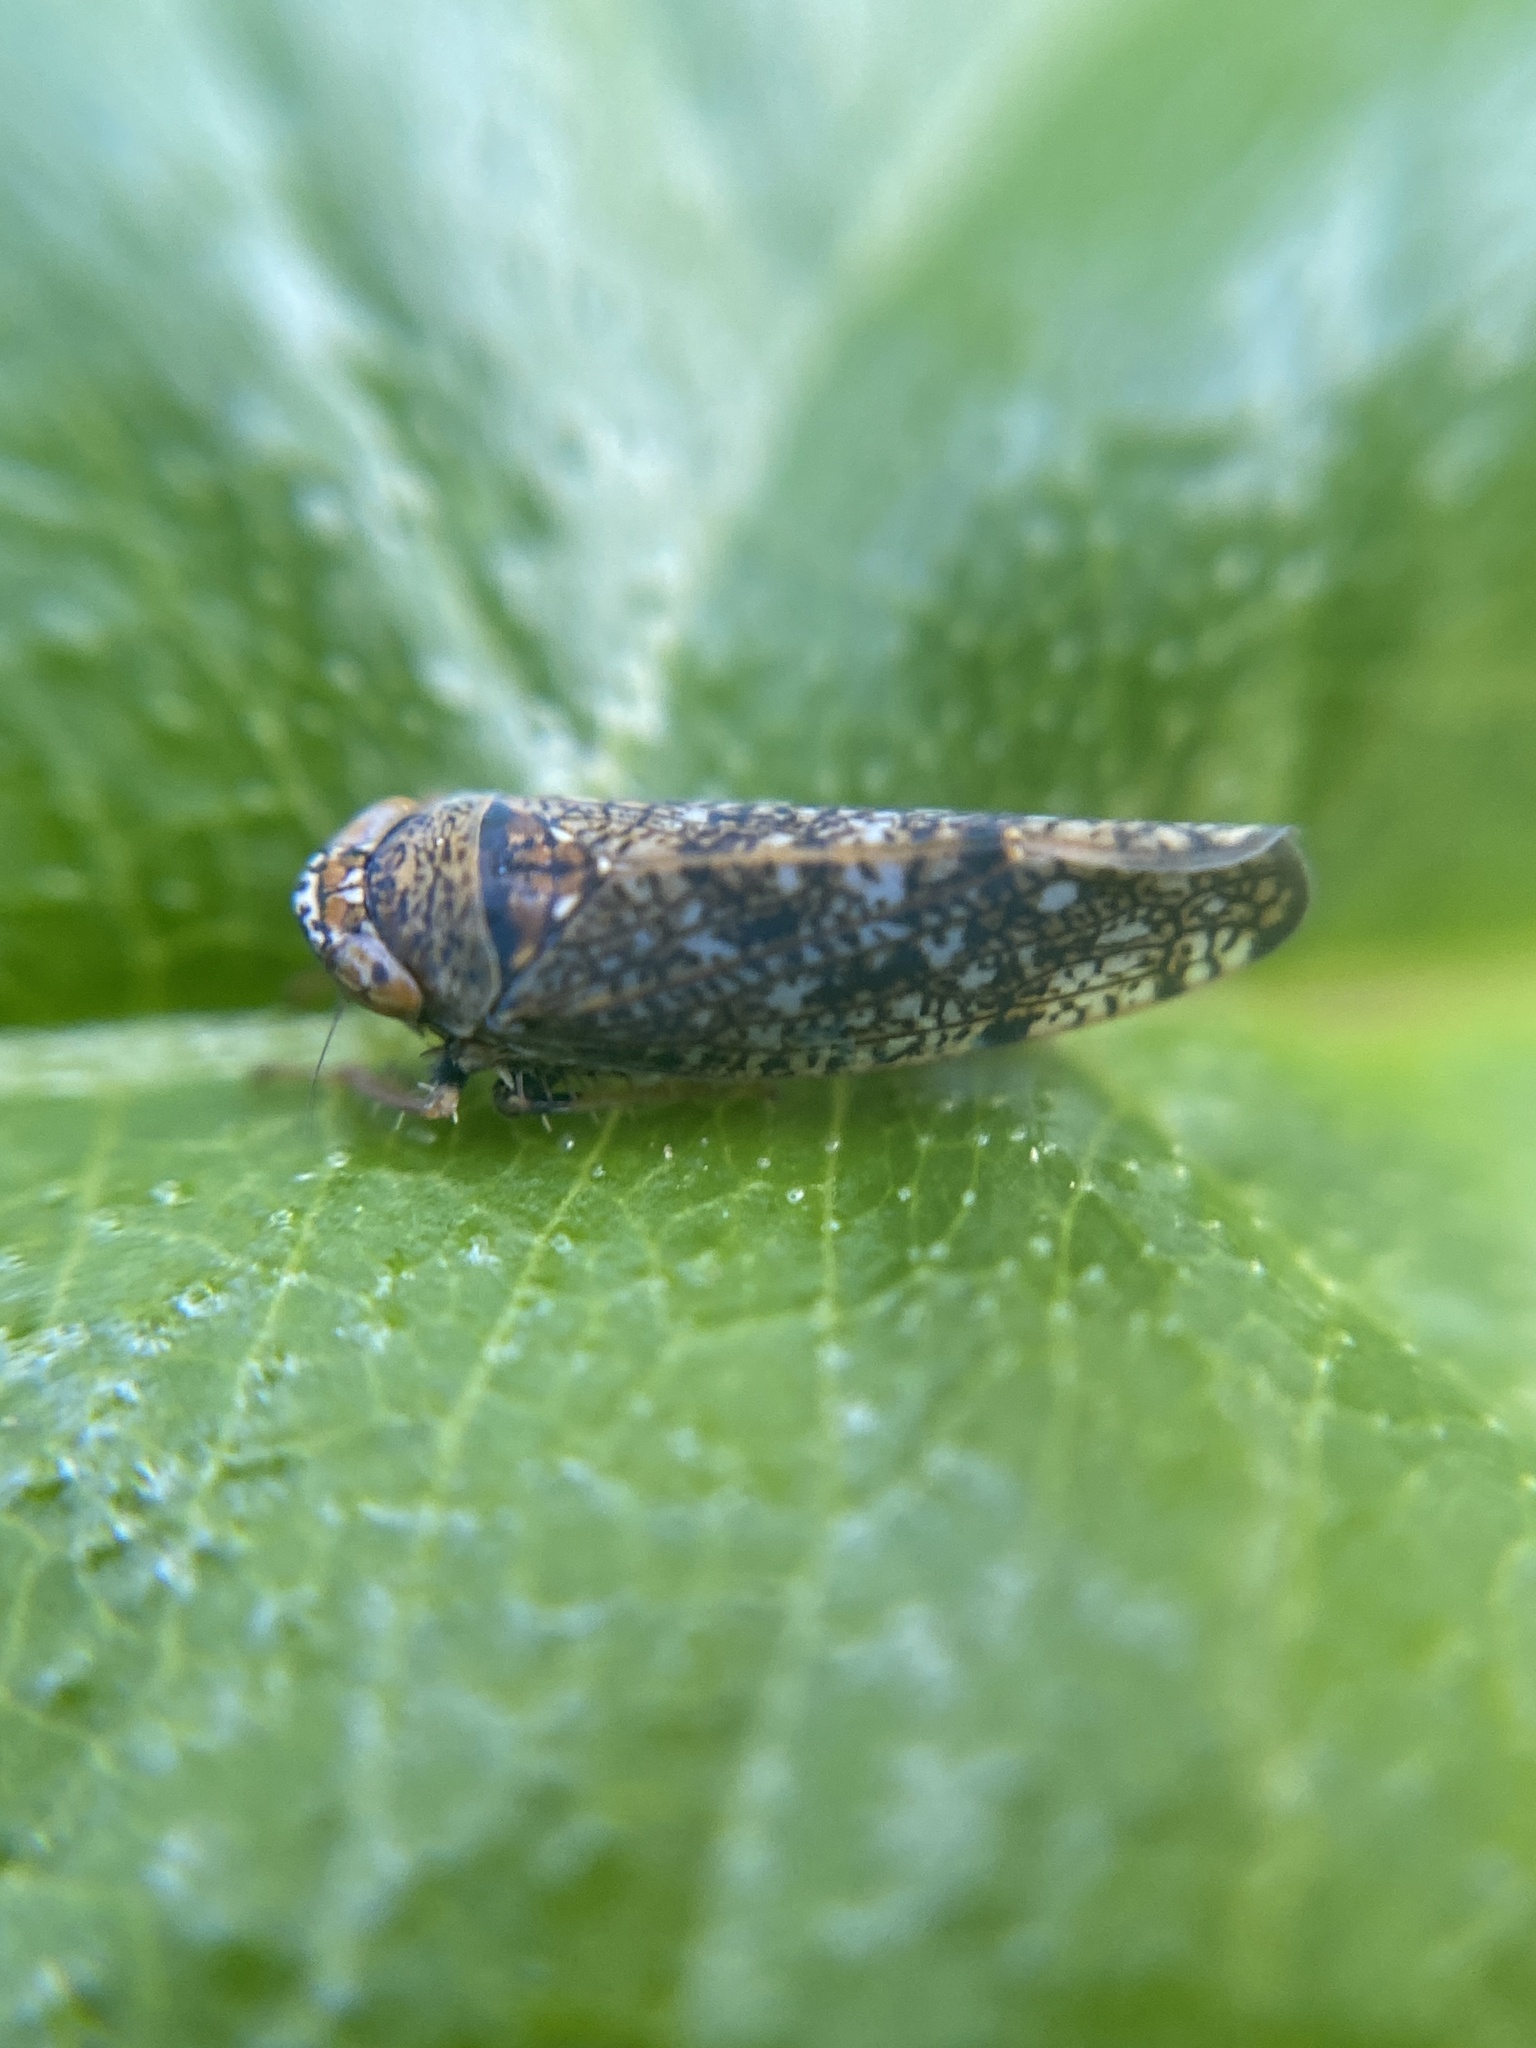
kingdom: Animalia
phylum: Arthropoda
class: Insecta
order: Hemiptera
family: Cicadellidae
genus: Orientus
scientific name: Orientus ishidae
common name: Japanese leafhopper
